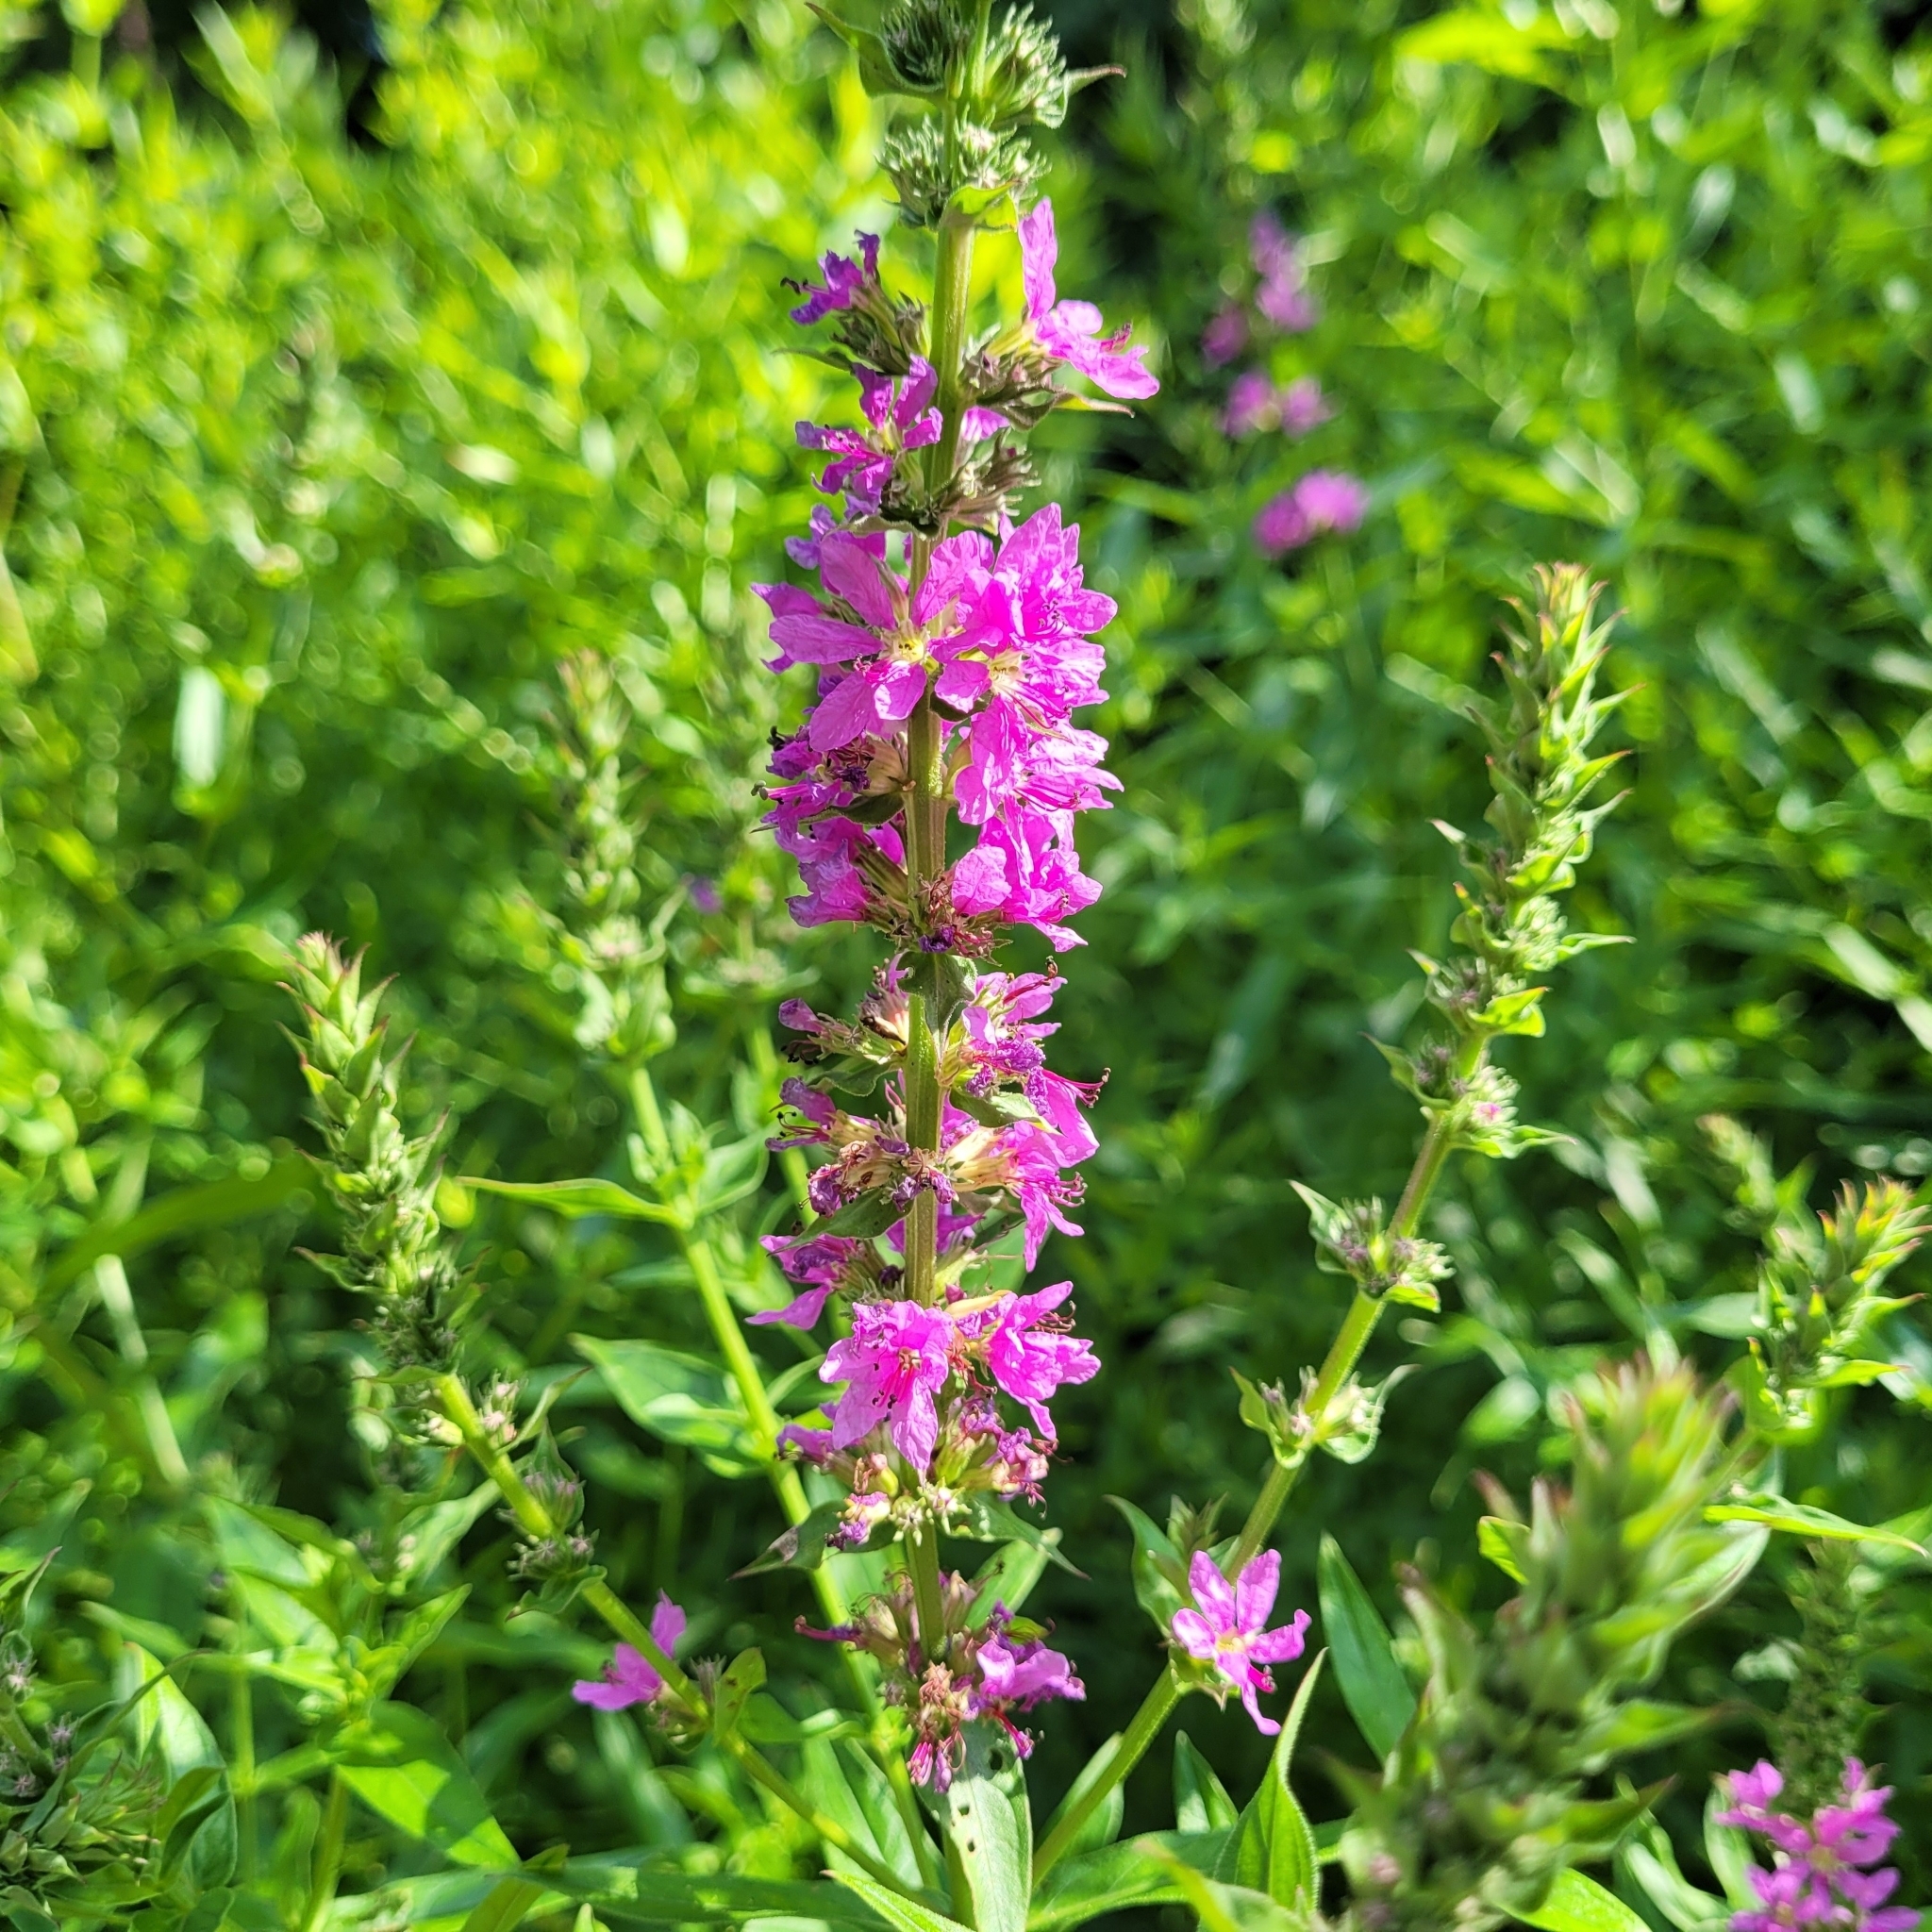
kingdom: Plantae
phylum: Tracheophyta
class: Magnoliopsida
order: Myrtales
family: Lythraceae
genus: Lythrum
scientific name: Lythrum salicaria
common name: Purple loosestrife
